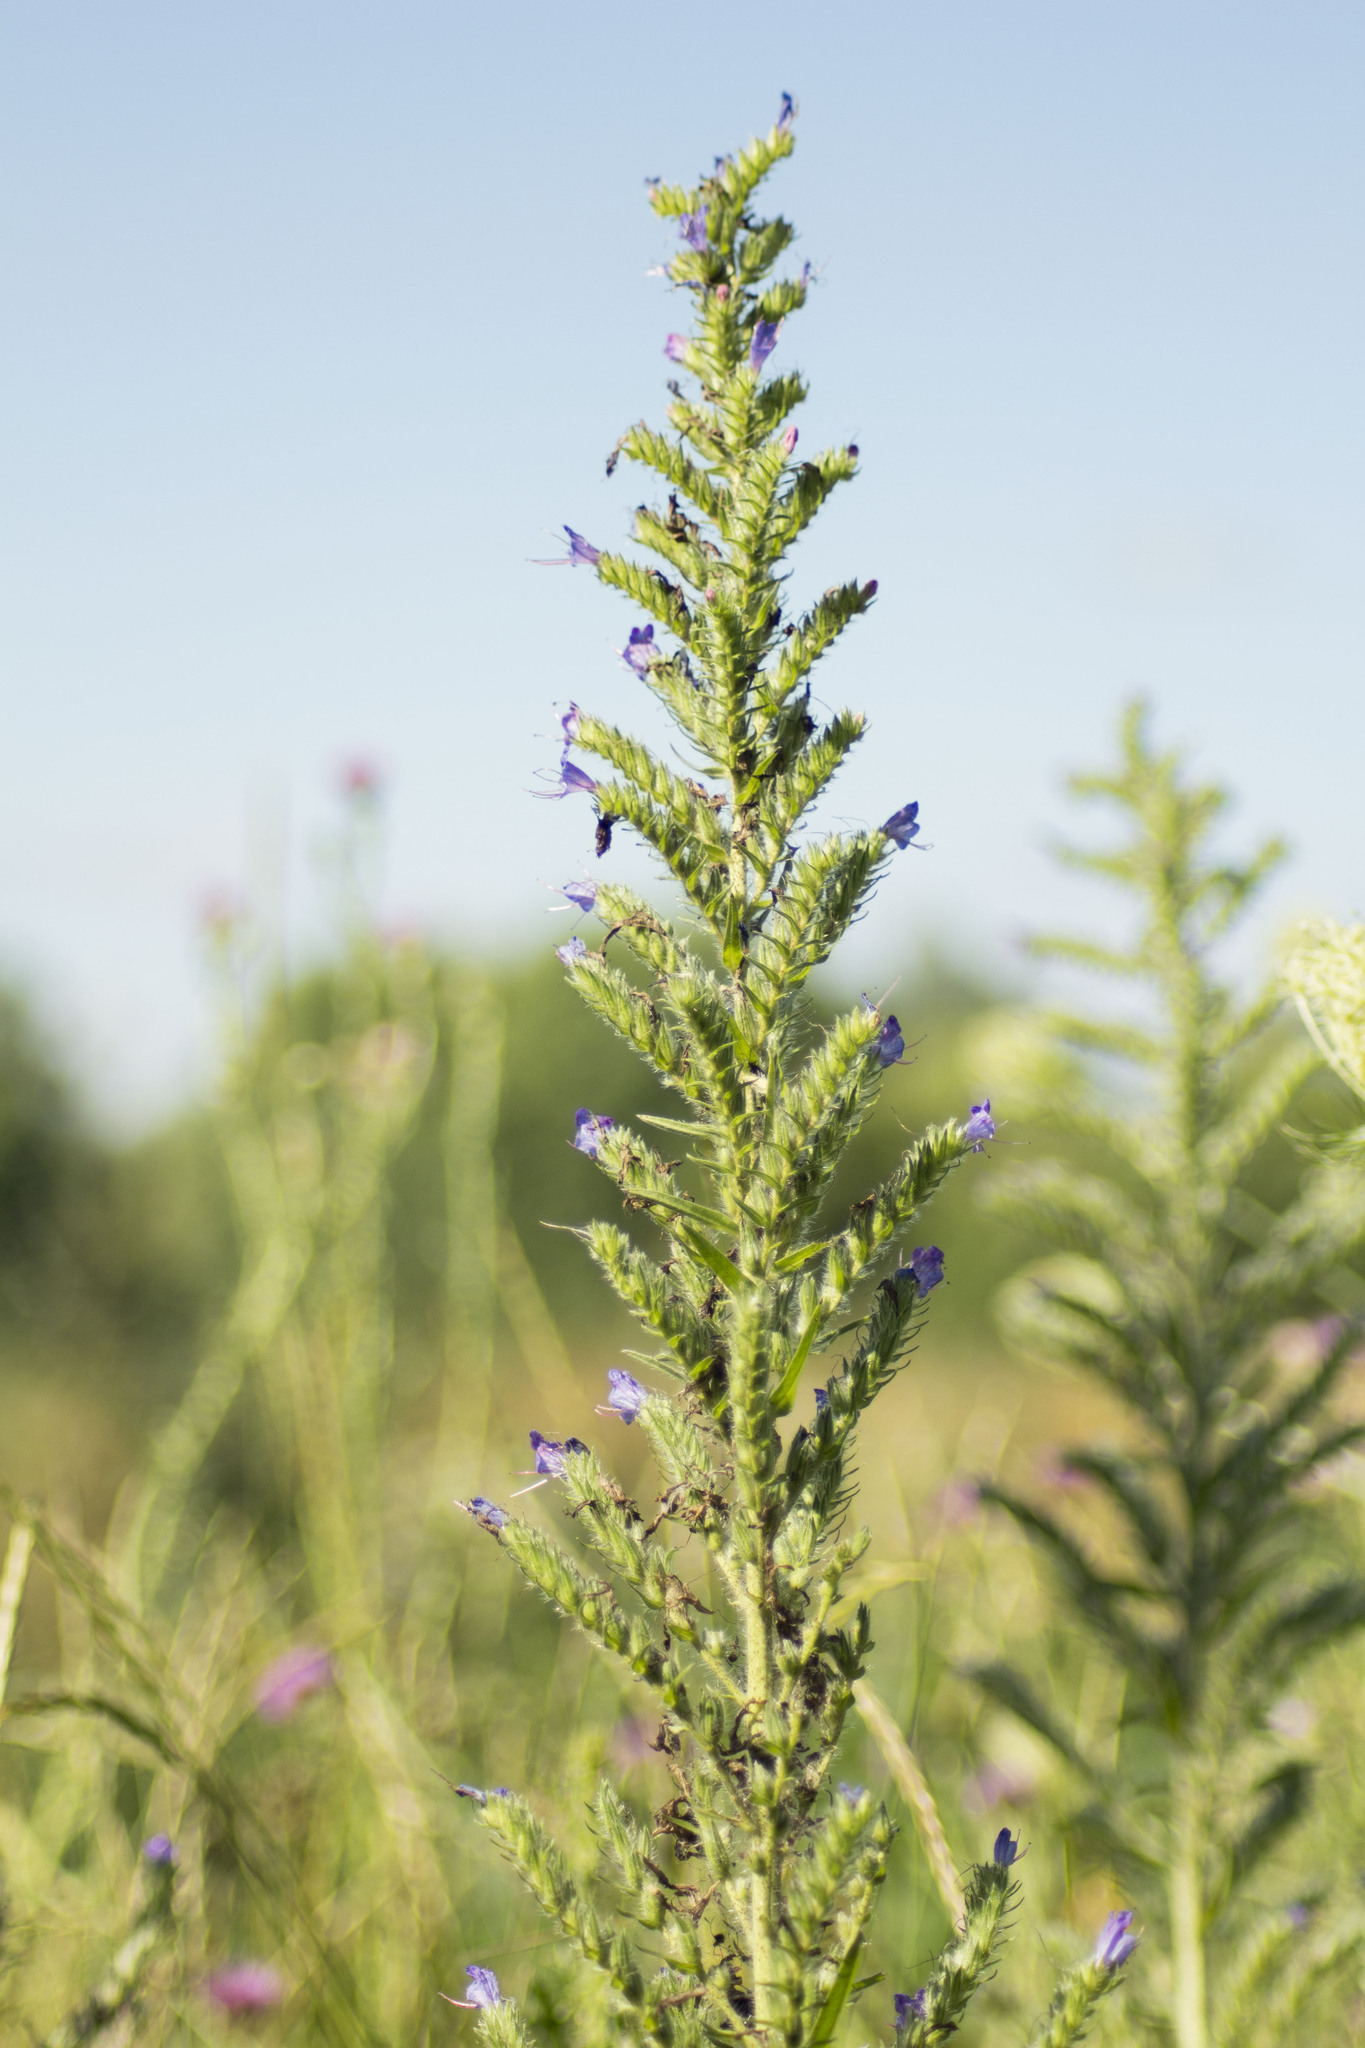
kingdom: Plantae
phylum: Tracheophyta
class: Magnoliopsida
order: Boraginales
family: Boraginaceae
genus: Echium
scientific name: Echium vulgare
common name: Common viper's bugloss
